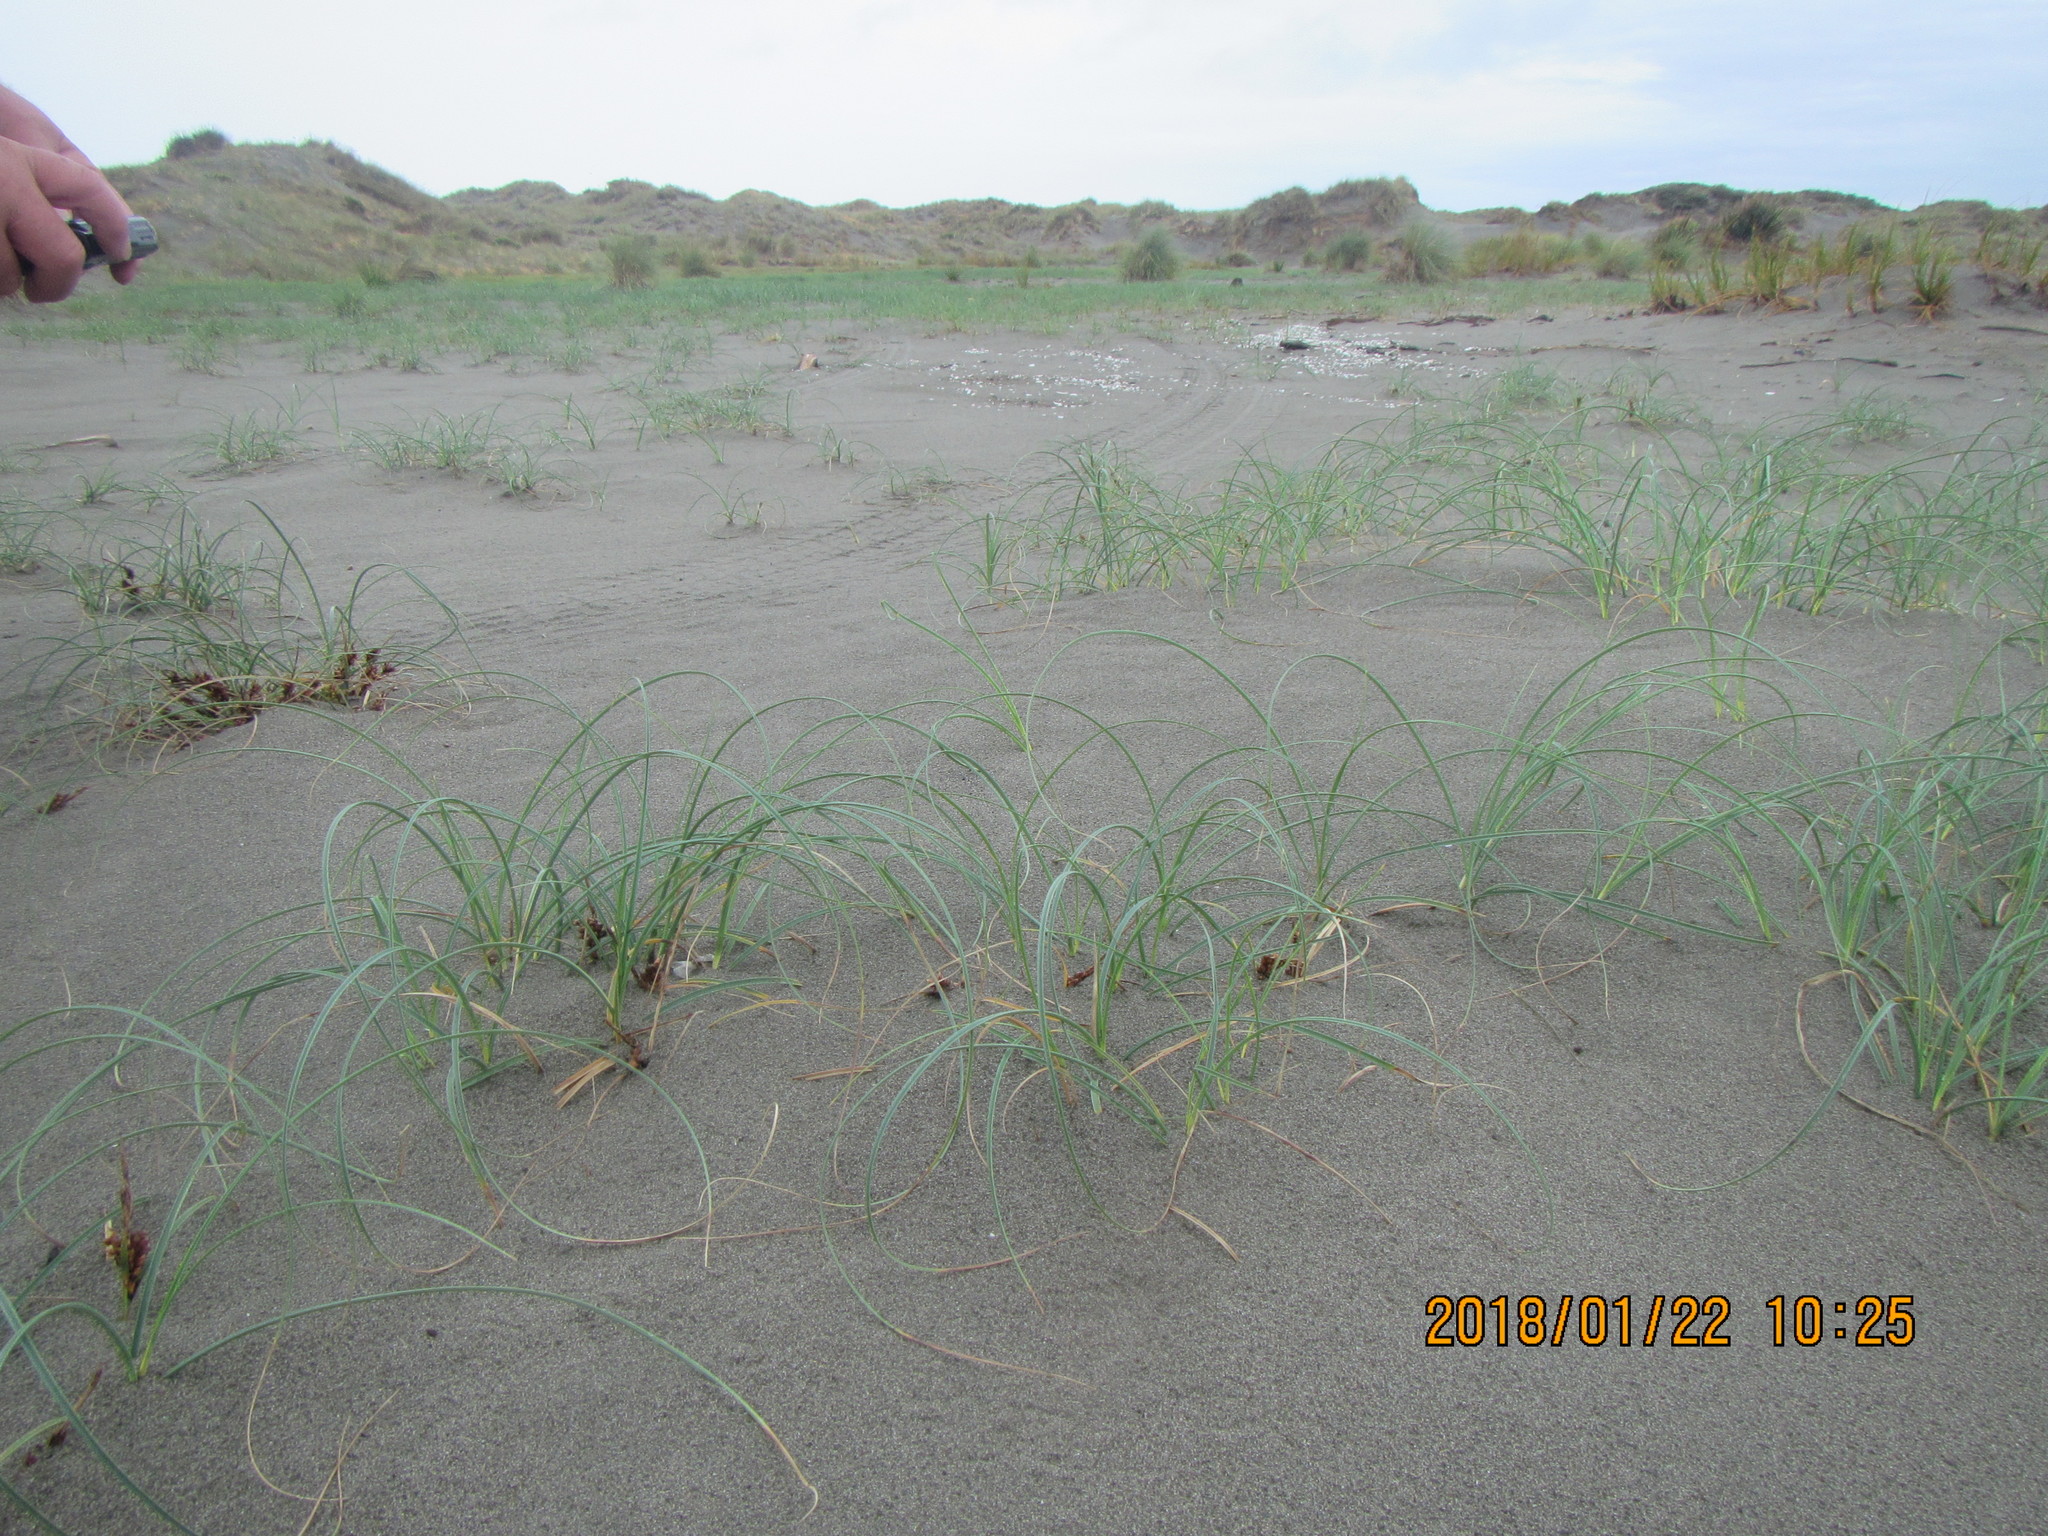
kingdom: Plantae
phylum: Tracheophyta
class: Liliopsida
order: Poales
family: Cyperaceae
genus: Carex
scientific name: Carex pumila
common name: Dwarf sedge
